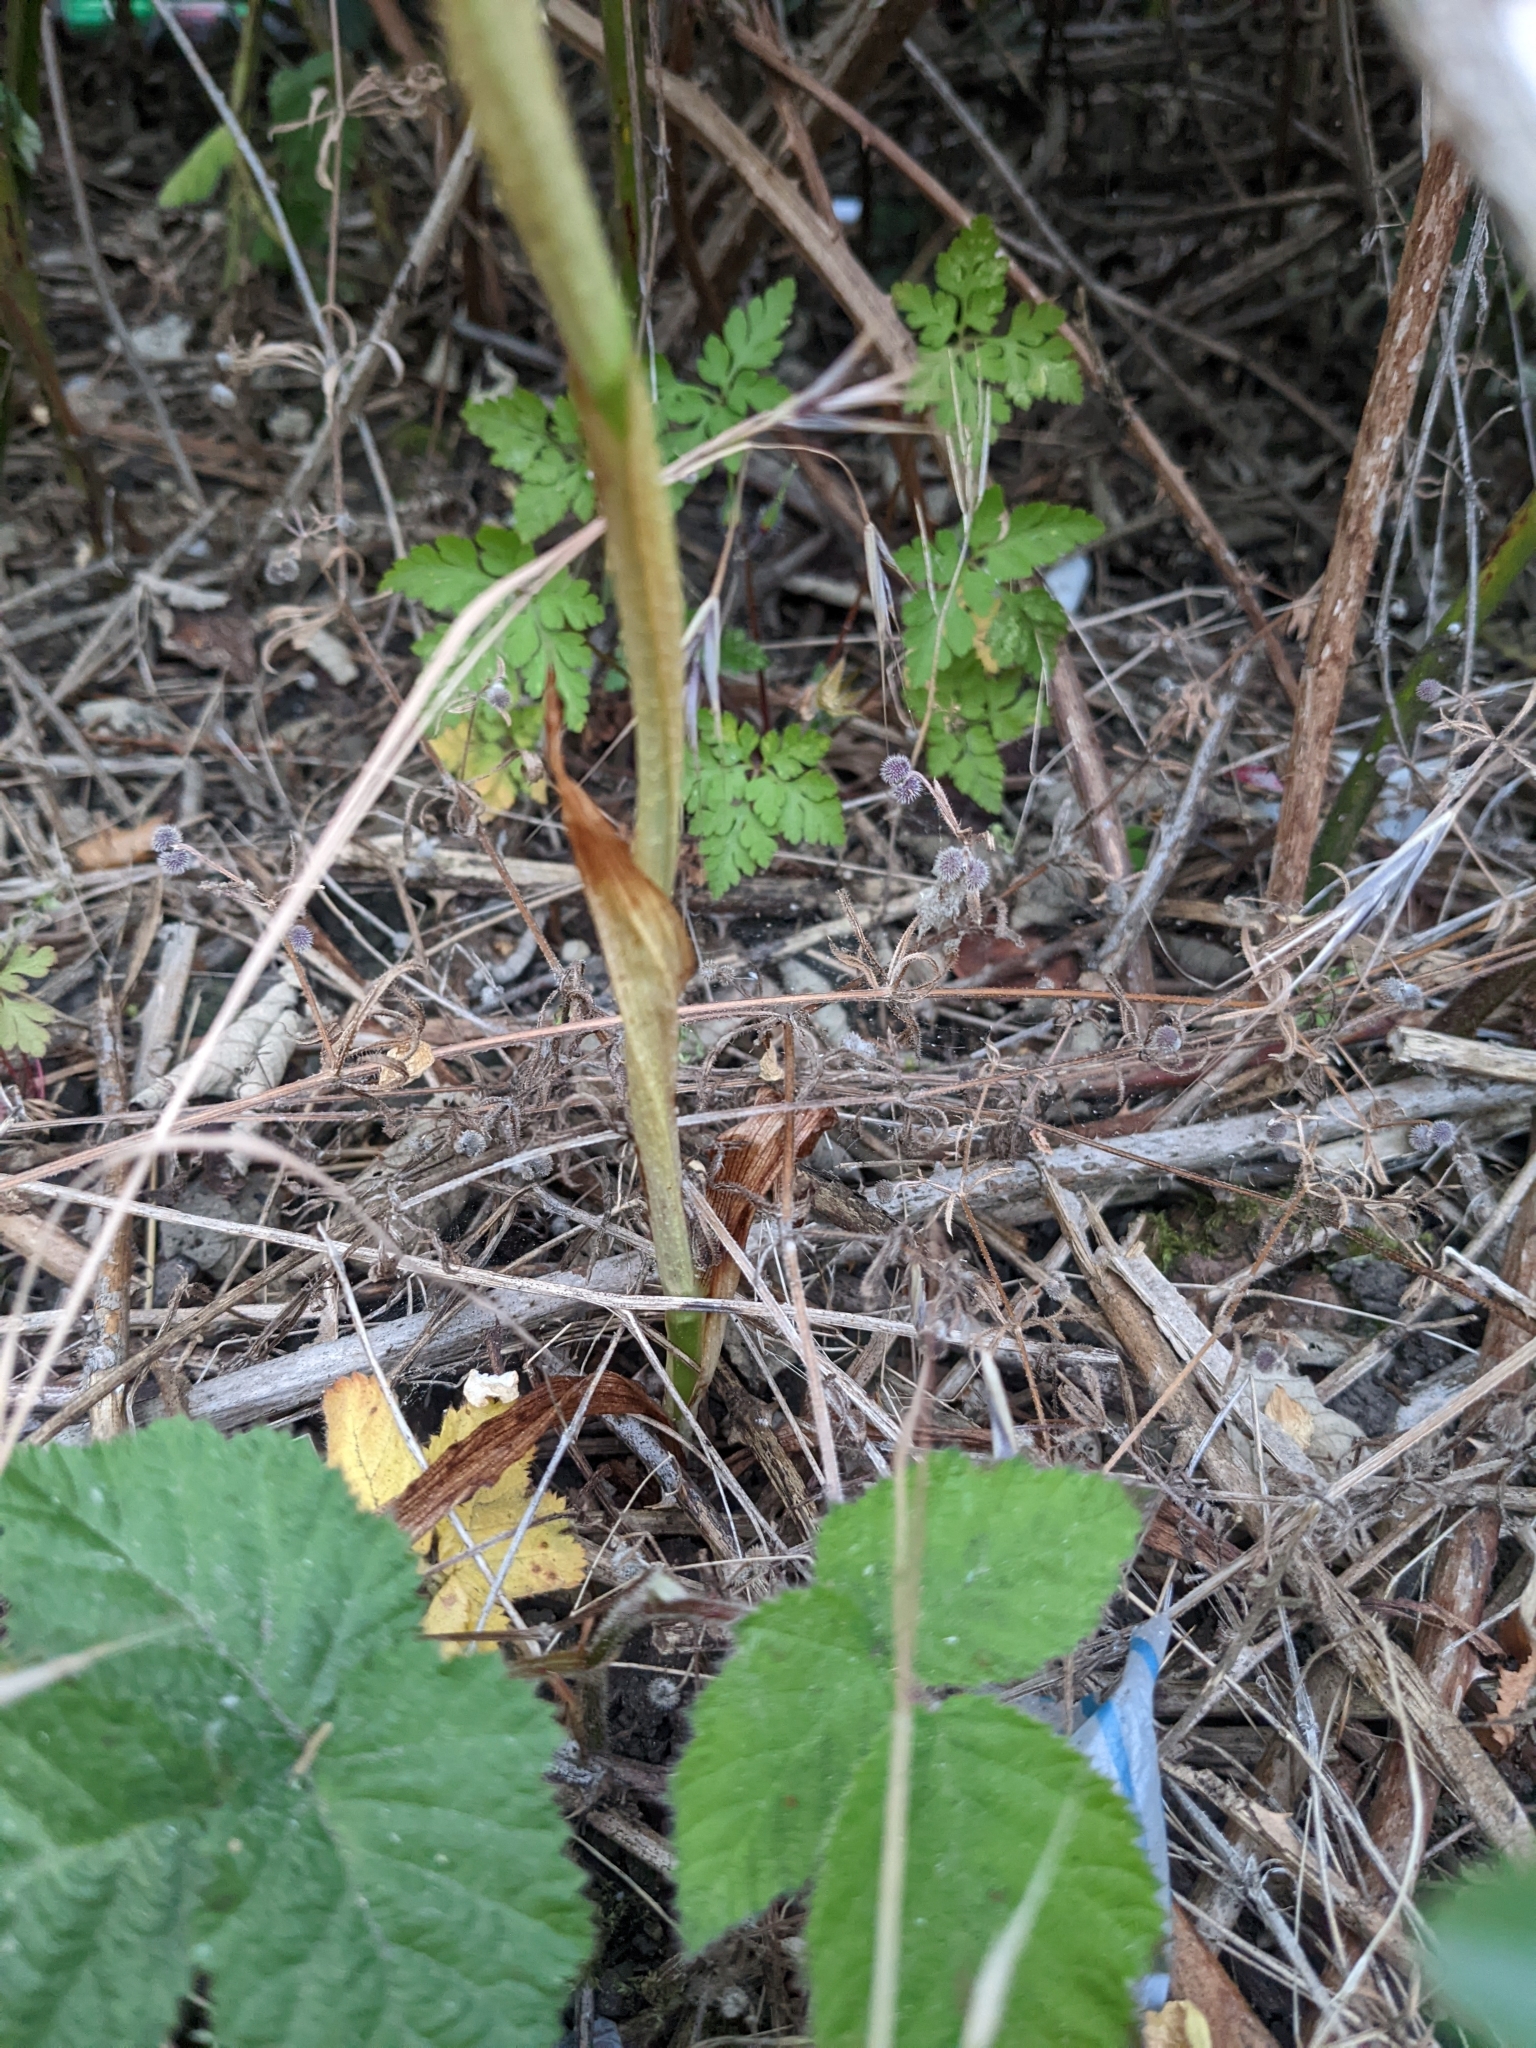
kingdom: Plantae
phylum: Tracheophyta
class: Liliopsida
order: Asparagales
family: Orchidaceae
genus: Anacamptis
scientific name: Anacamptis pyramidalis
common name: Pyramidal orchid
